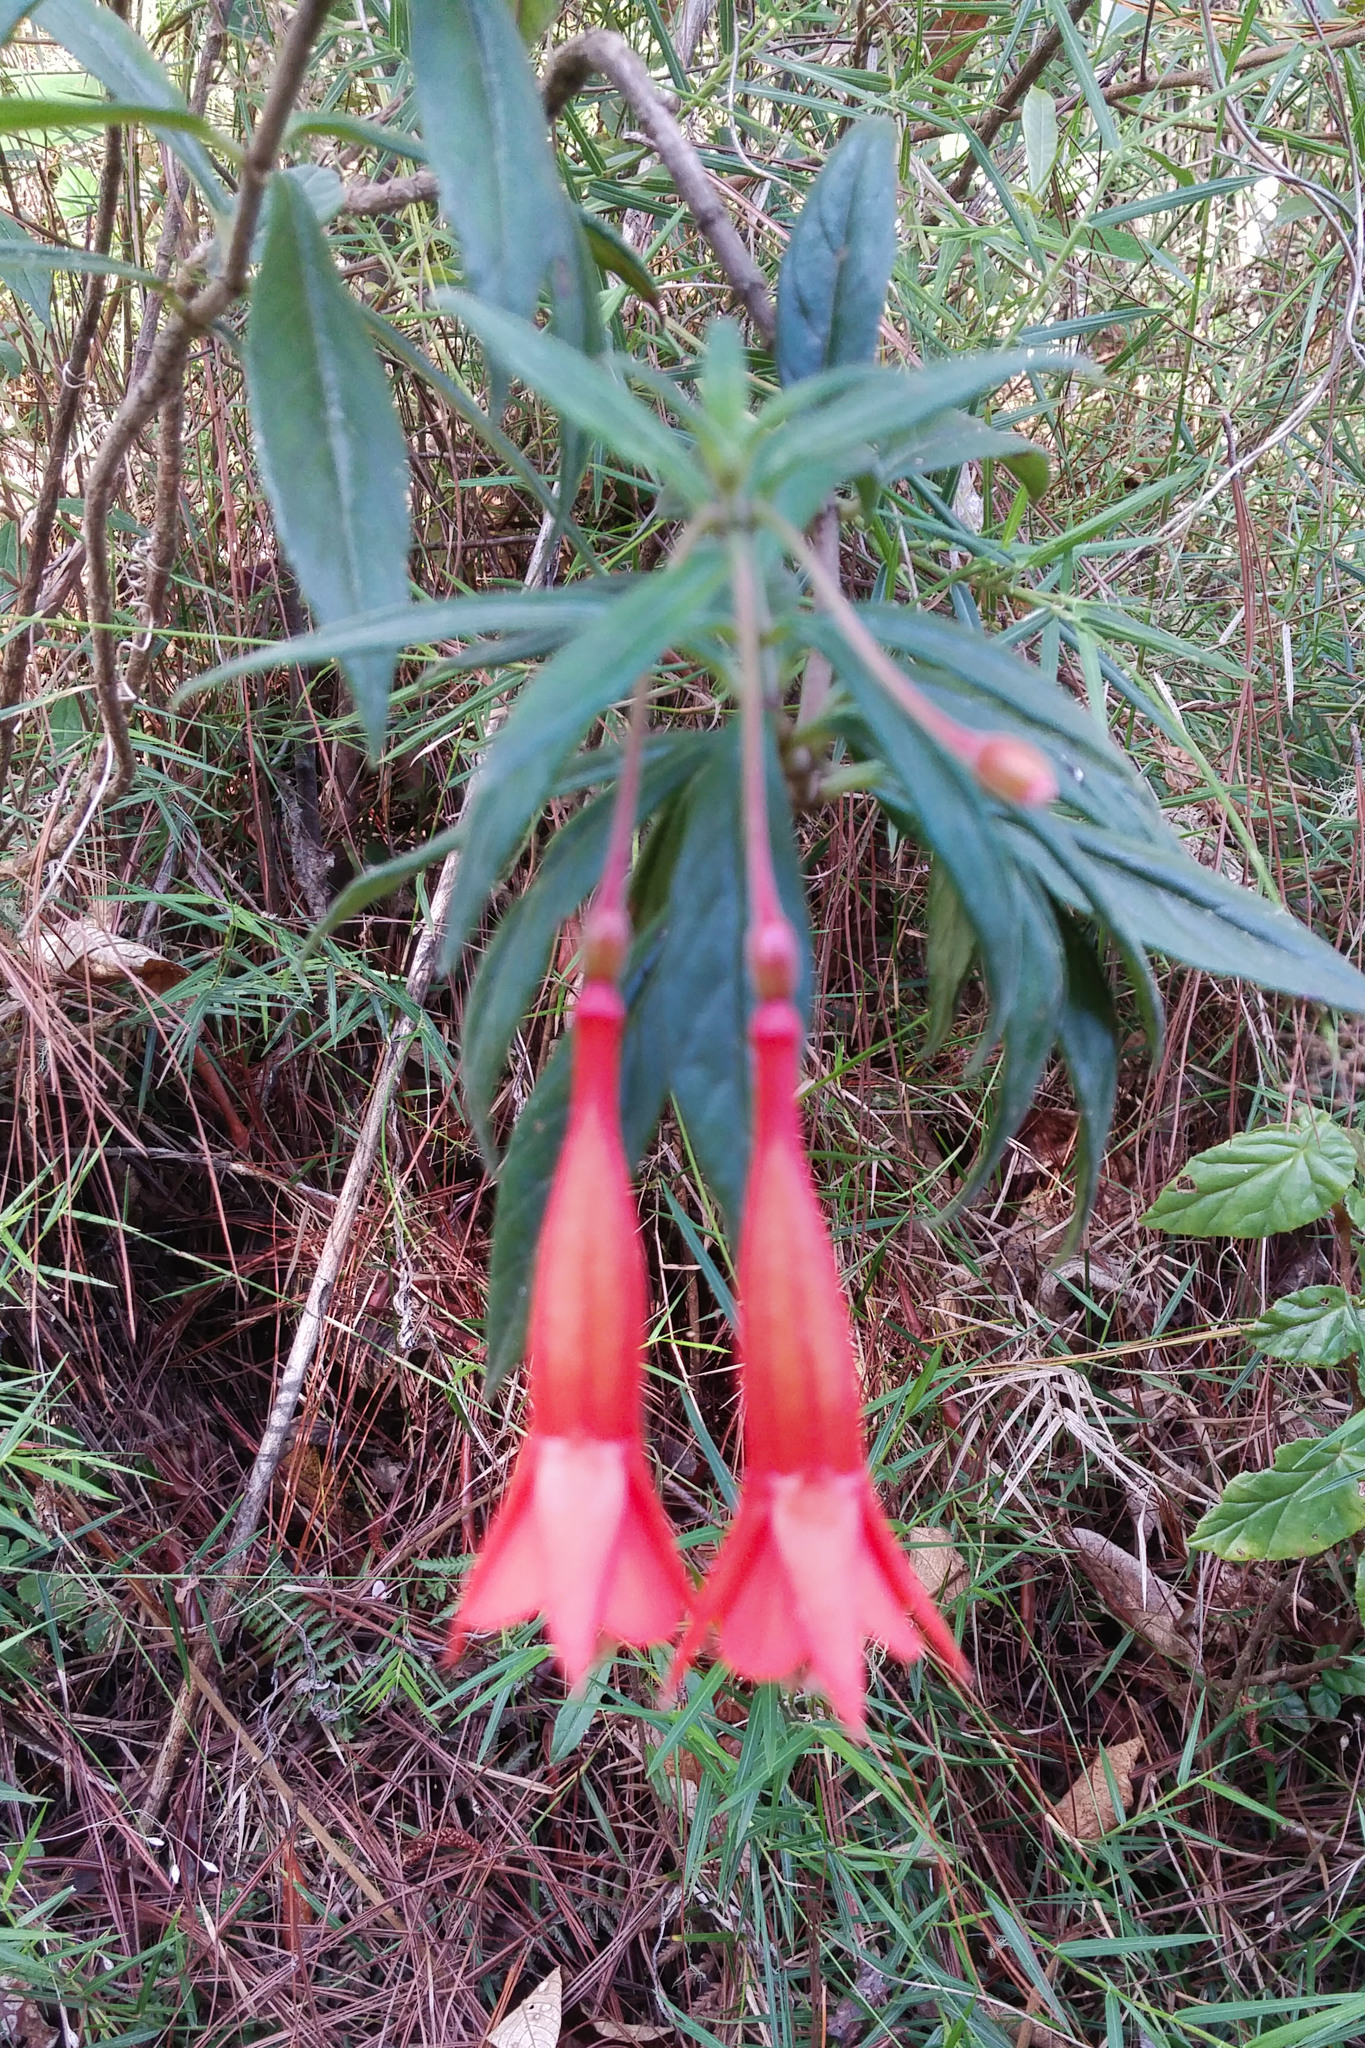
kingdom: Plantae
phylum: Tracheophyta
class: Magnoliopsida
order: Myrtales
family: Onagraceae
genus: Fuchsia
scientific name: Fuchsia pringsheimii
